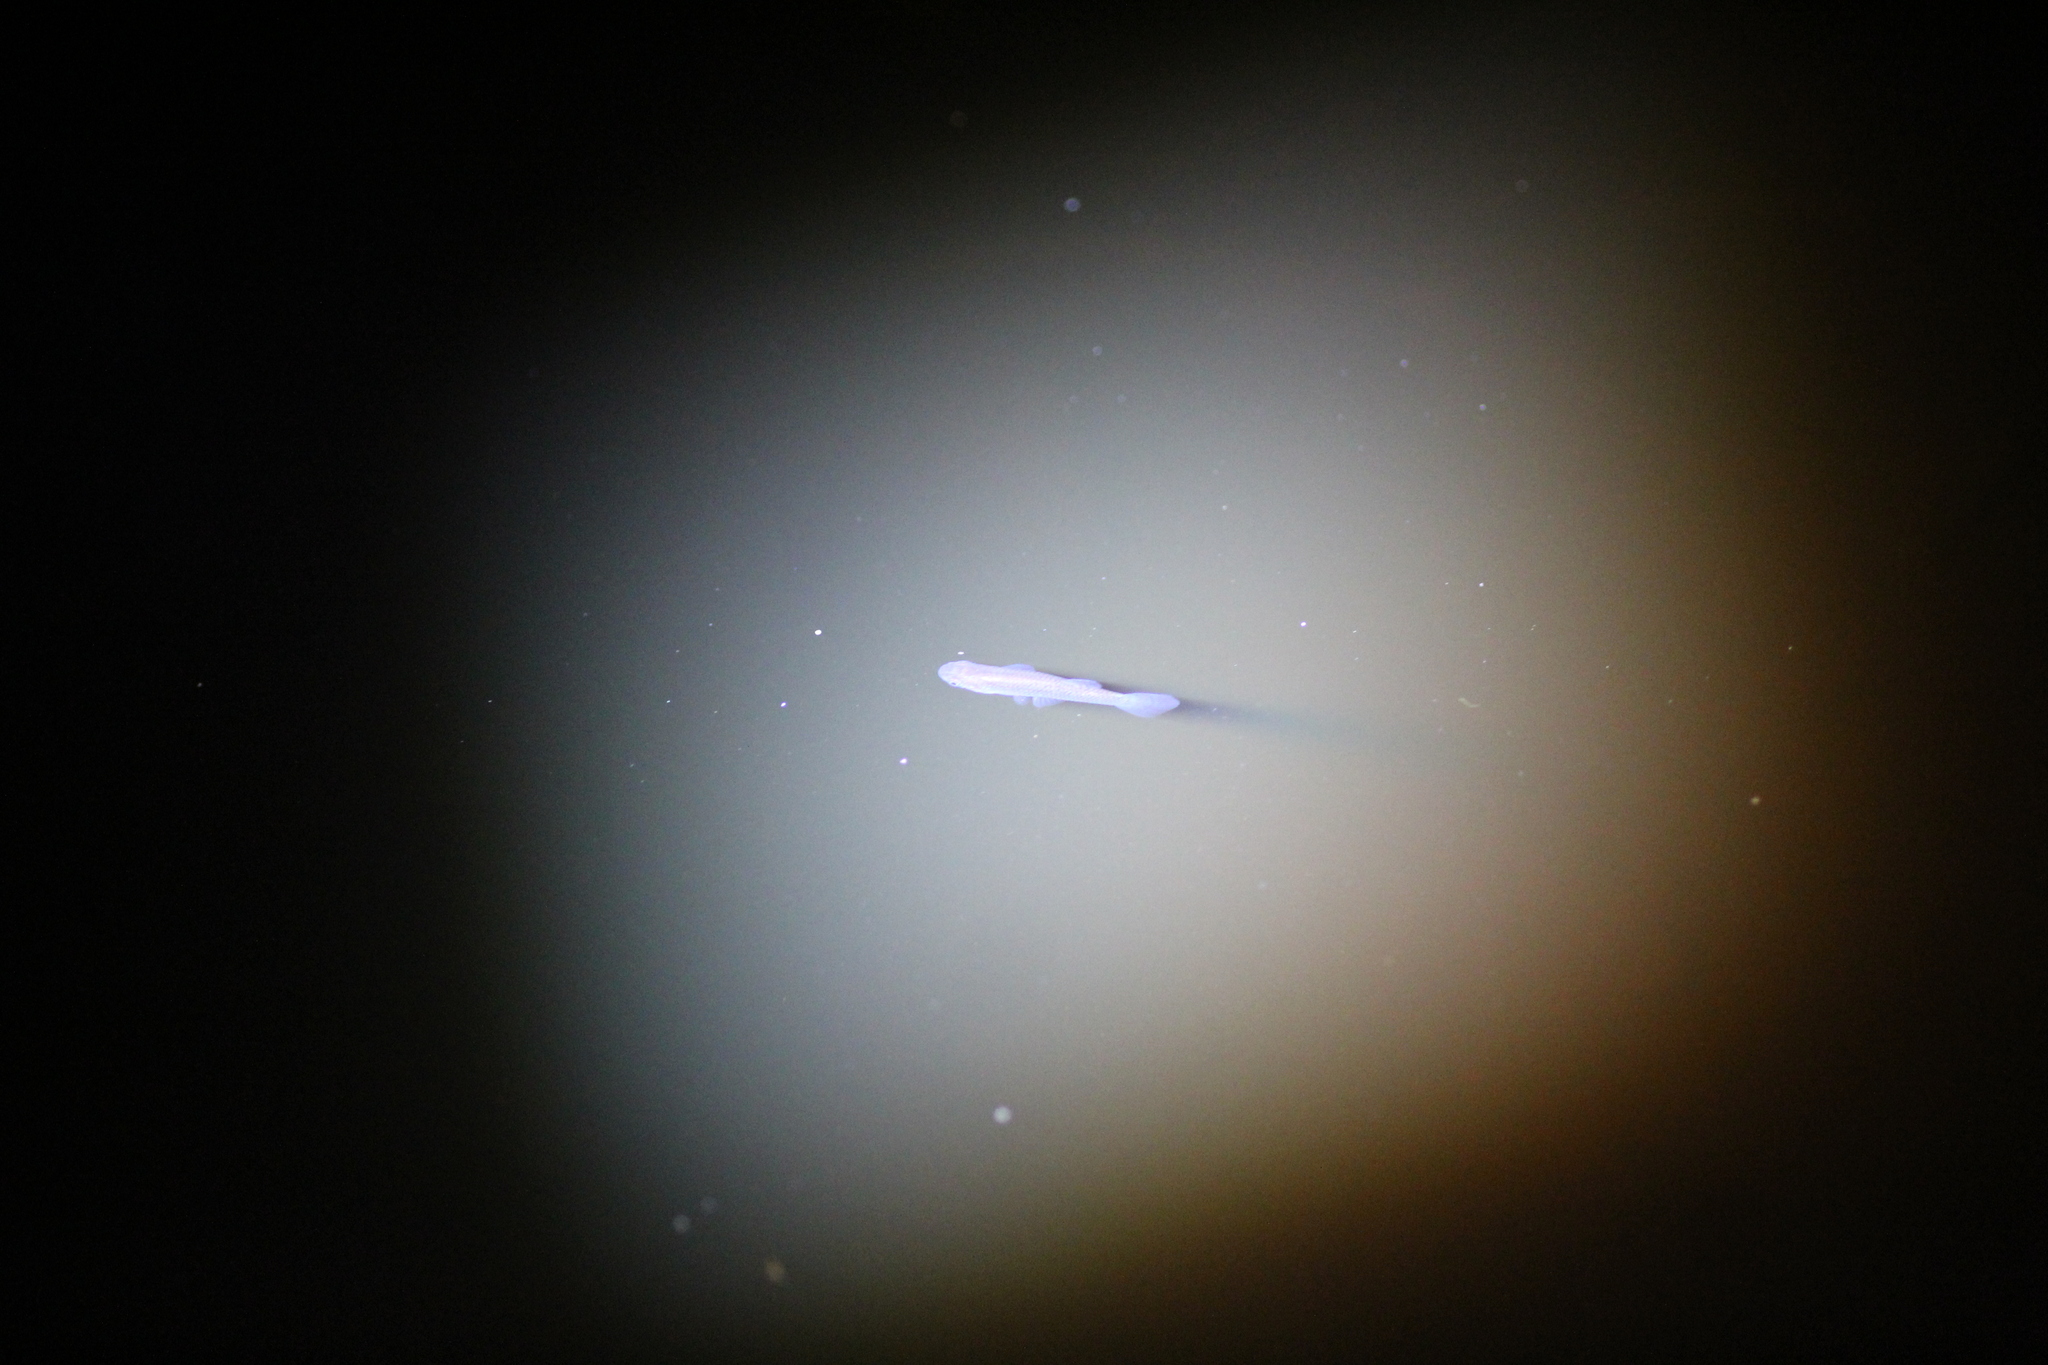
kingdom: Animalia
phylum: Chordata
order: Cyprinodontiformes
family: Poeciliidae
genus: Gambusia
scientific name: Gambusia holbrooki
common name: Eastern mosquitofish
